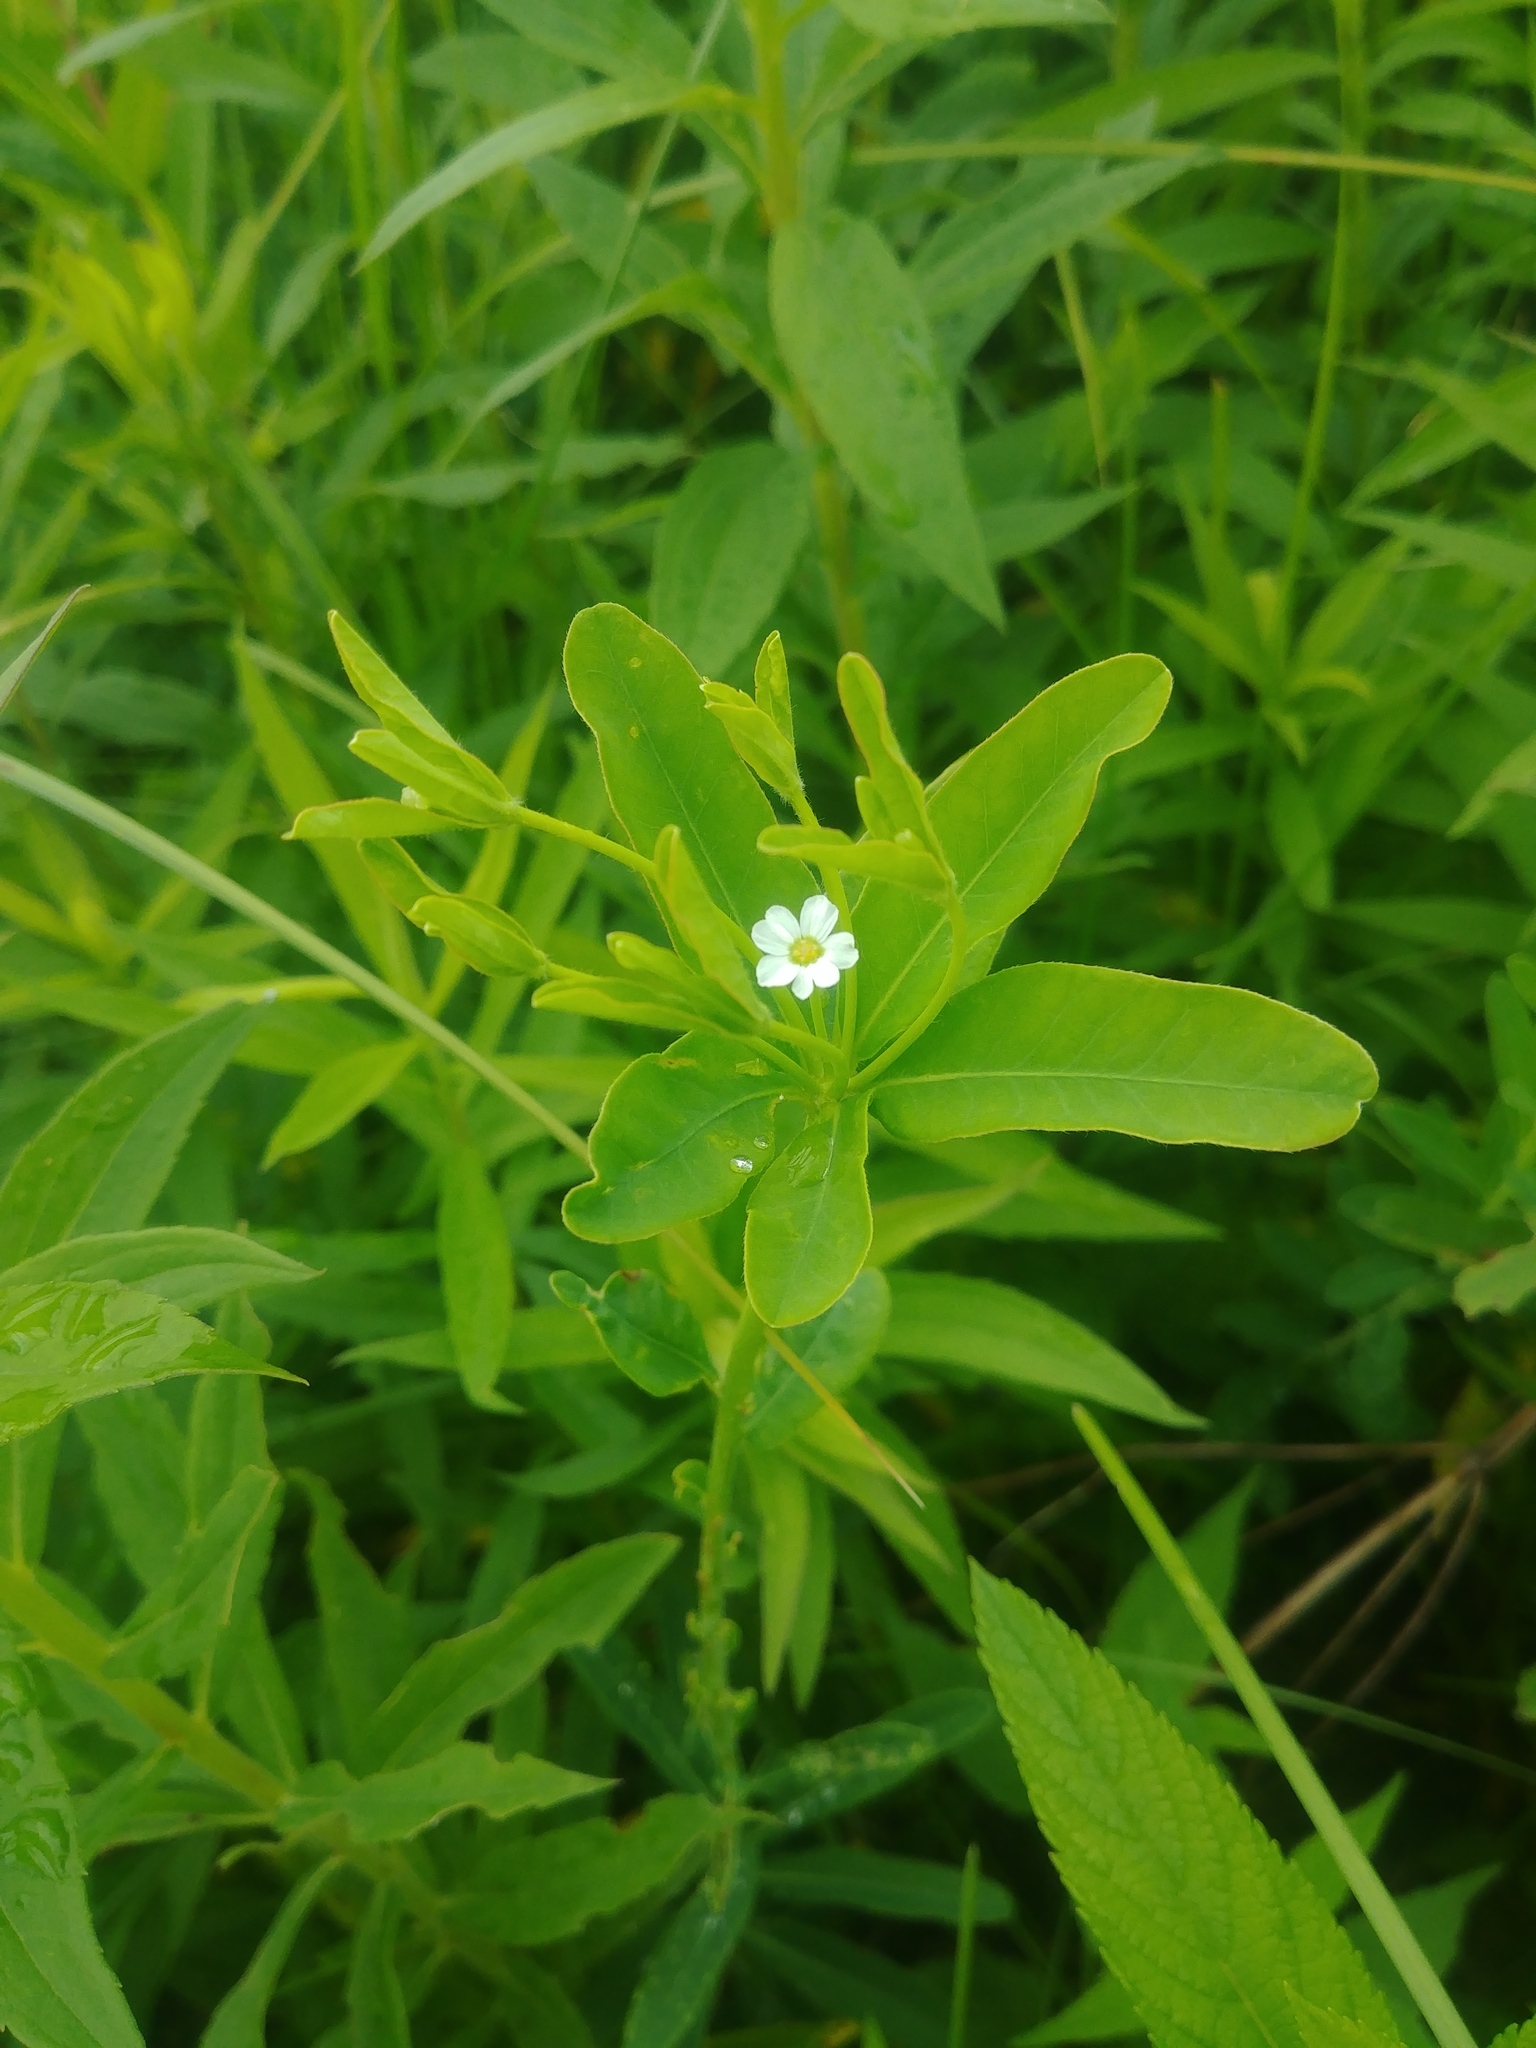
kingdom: Plantae
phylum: Tracheophyta
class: Magnoliopsida
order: Malpighiales
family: Euphorbiaceae
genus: Euphorbia
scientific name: Euphorbia corollata
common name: Flowering spurge
